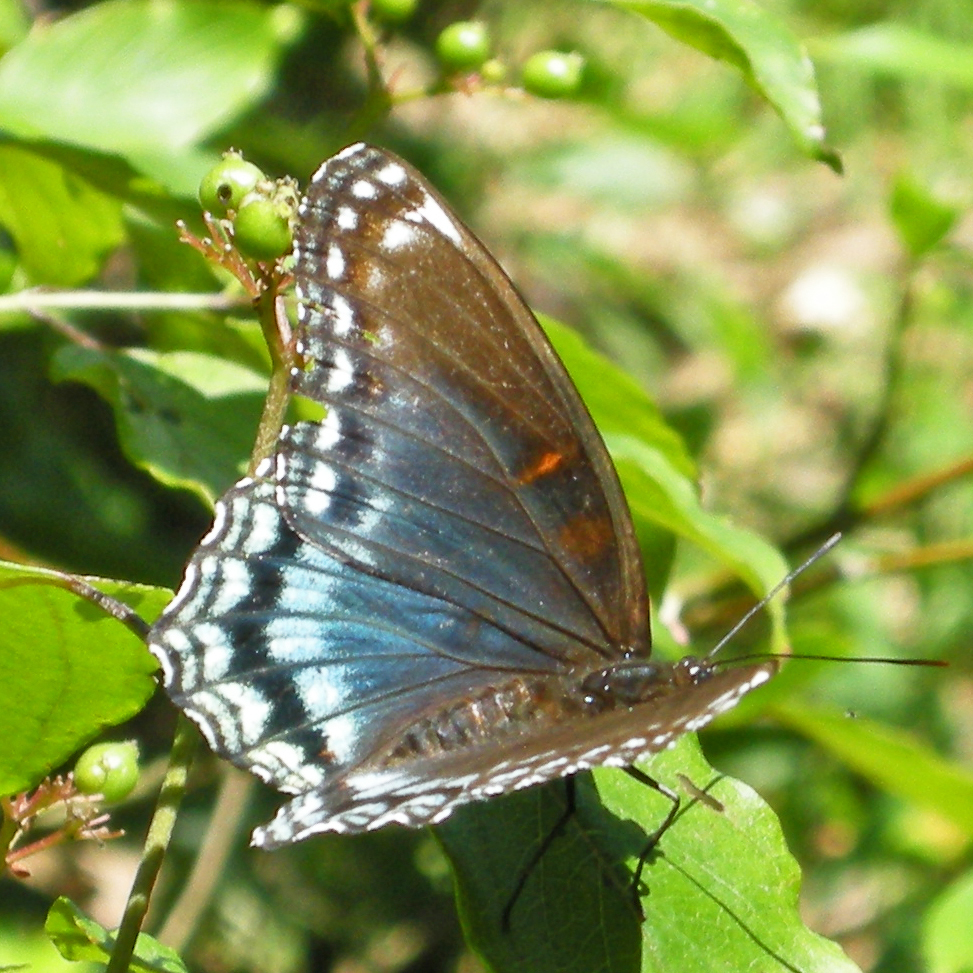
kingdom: Animalia
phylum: Arthropoda
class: Insecta
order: Lepidoptera
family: Nymphalidae
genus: Limenitis
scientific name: Limenitis astyanax
